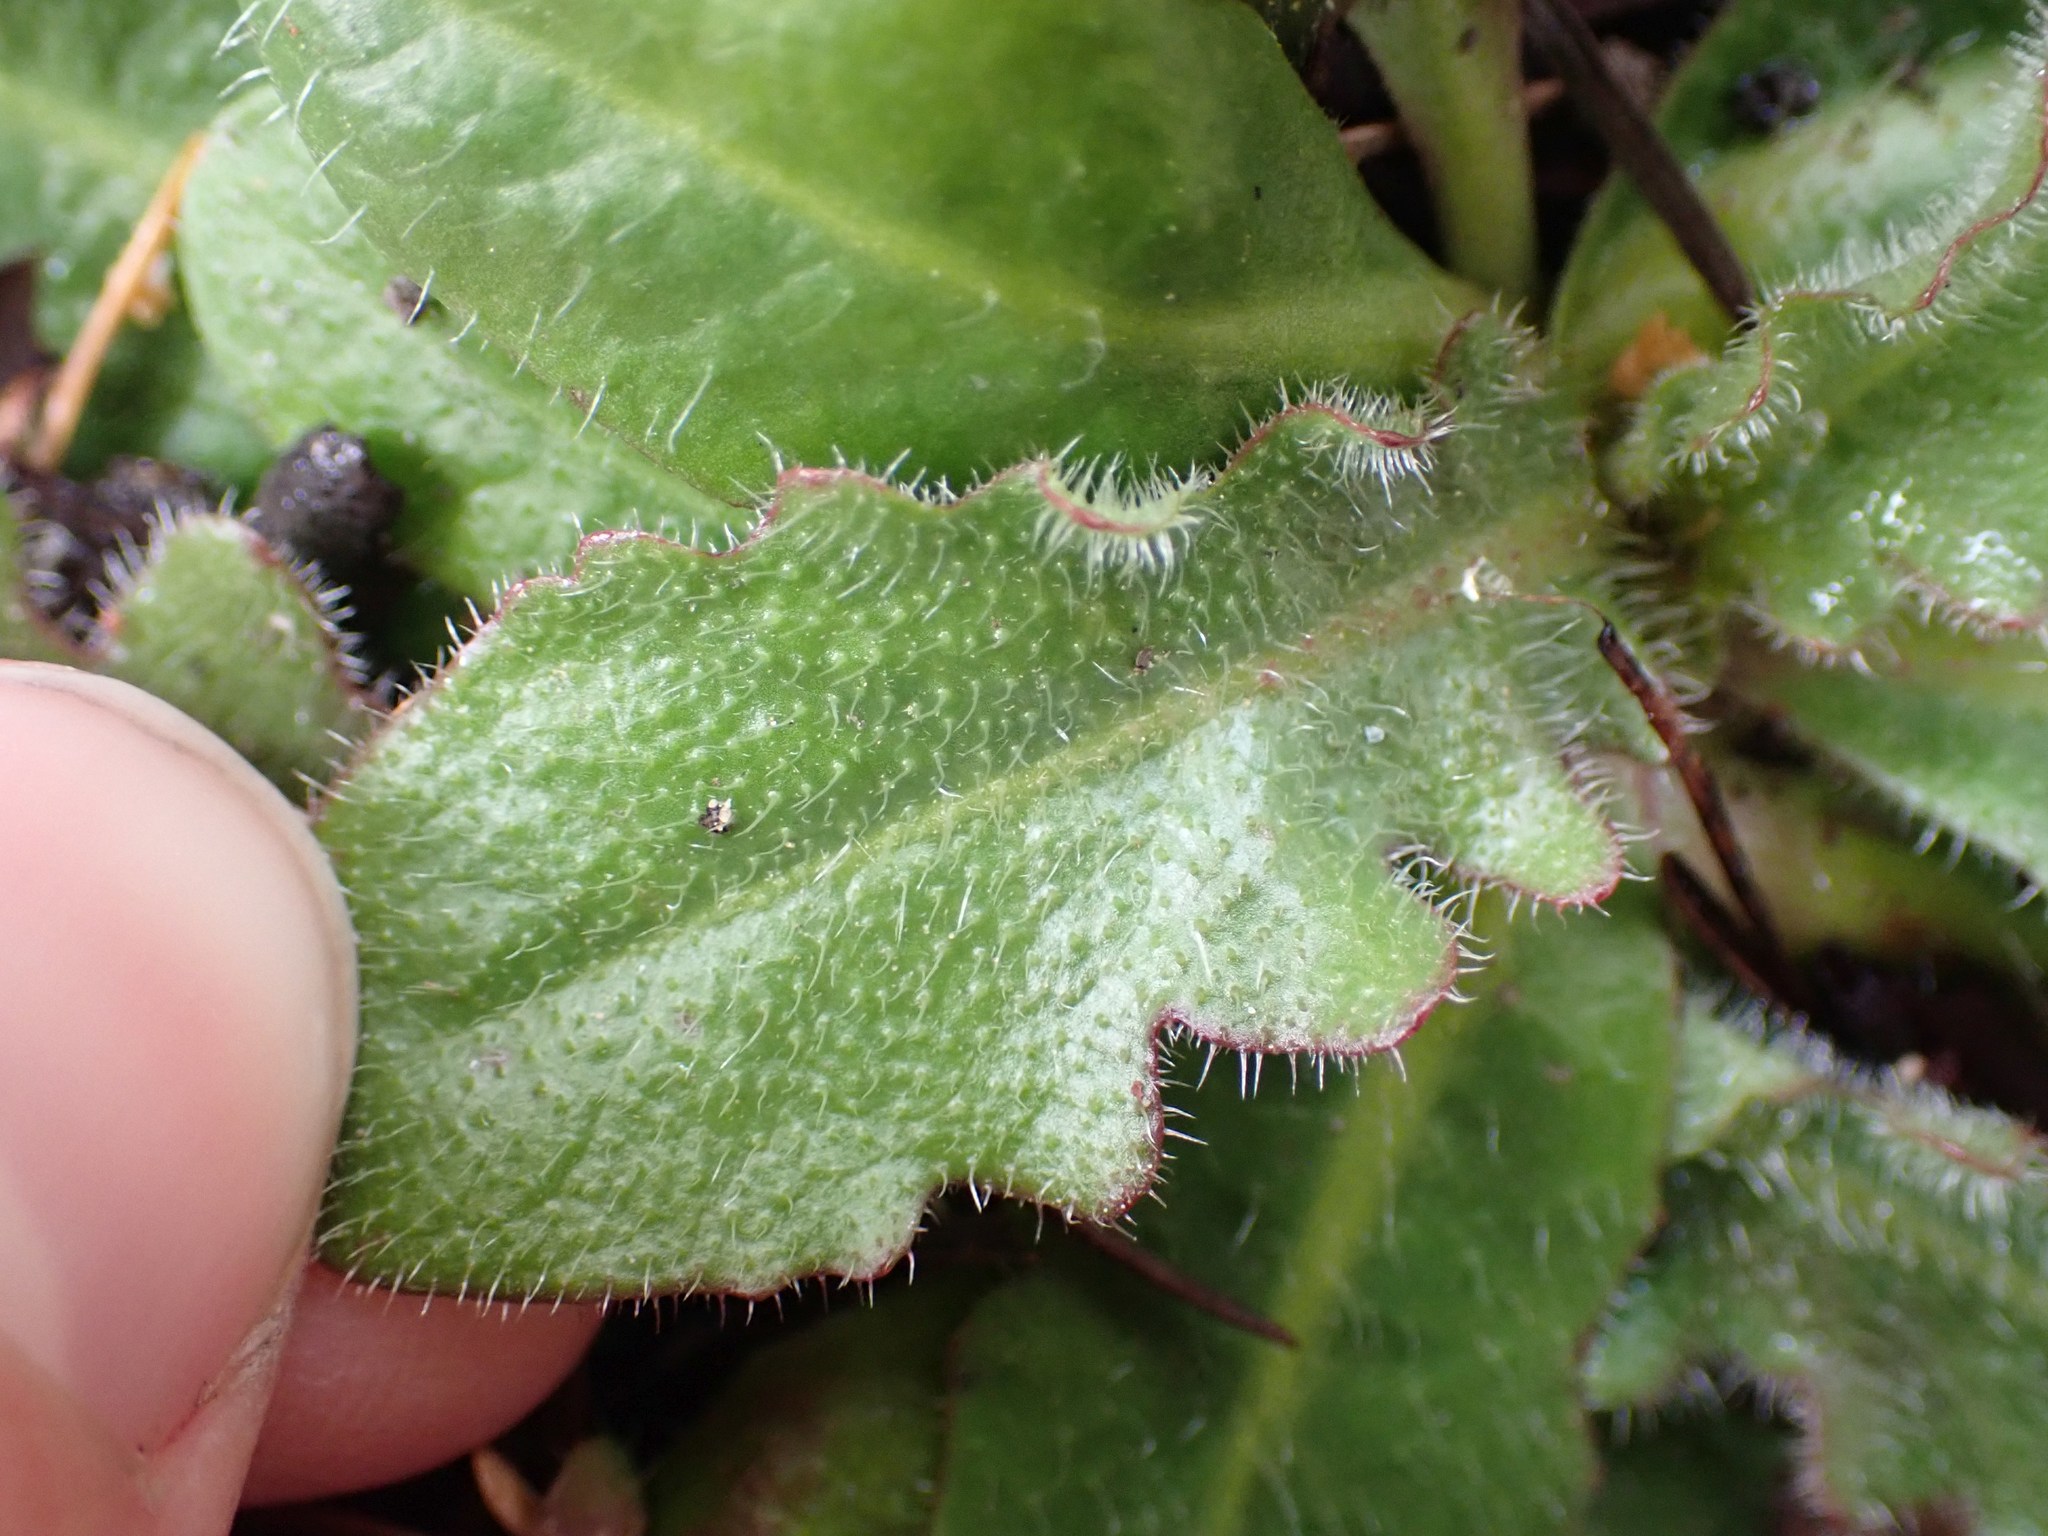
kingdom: Plantae
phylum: Tracheophyta
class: Magnoliopsida
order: Asterales
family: Asteraceae
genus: Hypochaeris
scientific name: Hypochaeris radicata
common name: Flatweed
